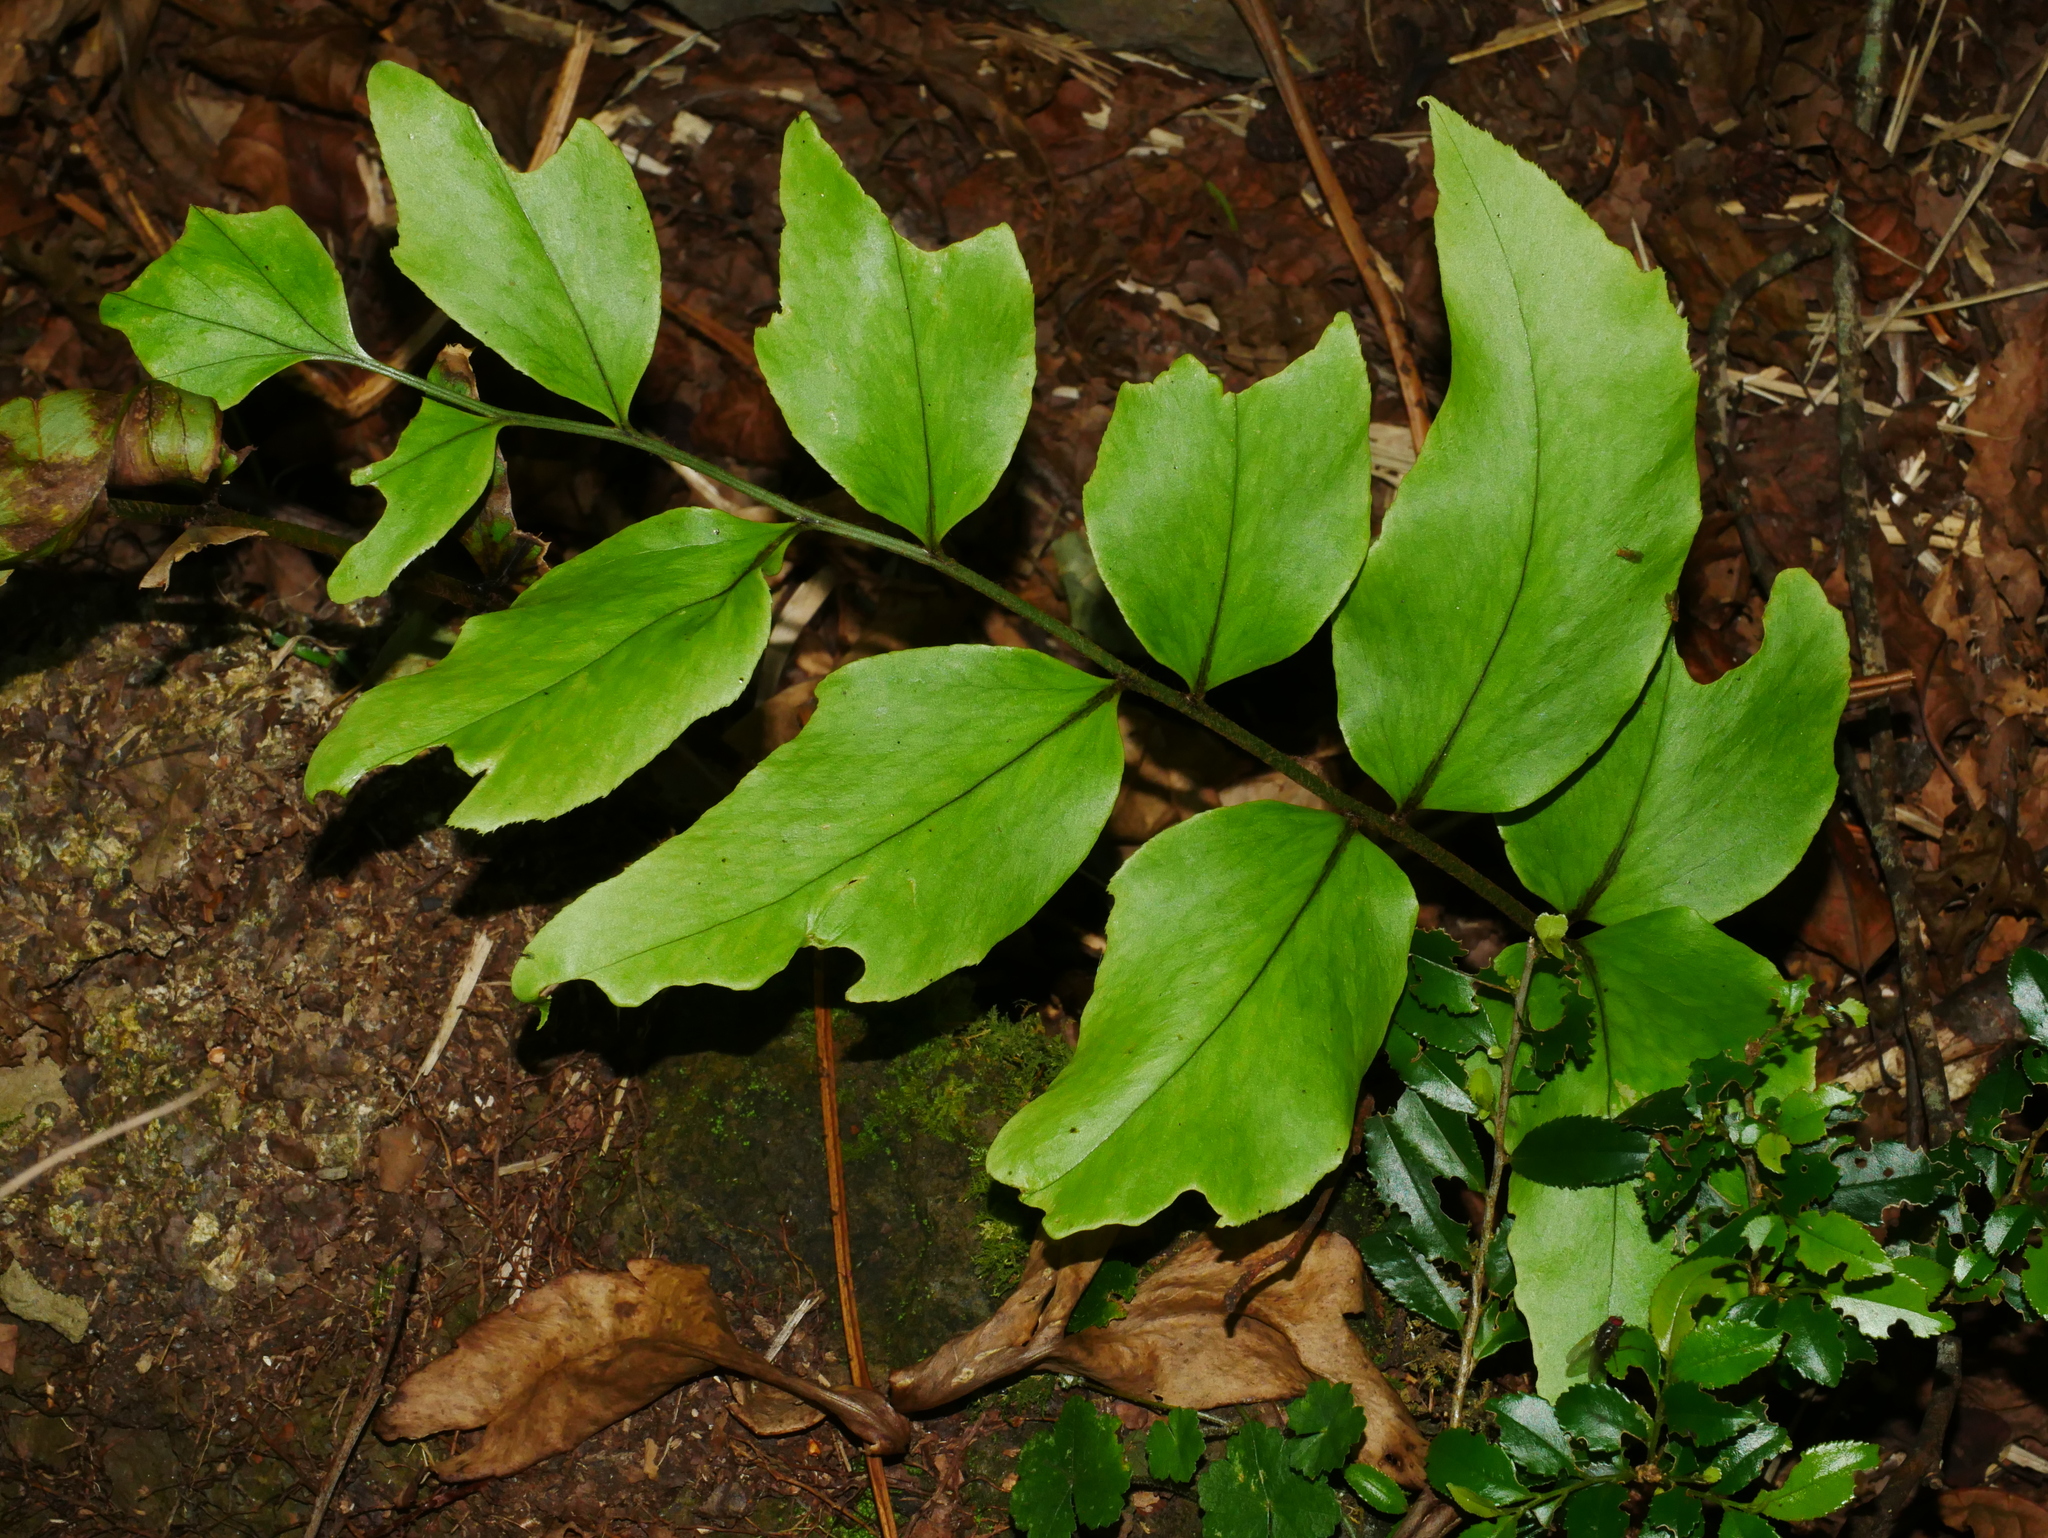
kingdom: Plantae
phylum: Tracheophyta
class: Polypodiopsida
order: Polypodiales
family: Dryopteridaceae
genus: Cyrtomium
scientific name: Cyrtomium macrophyllum
